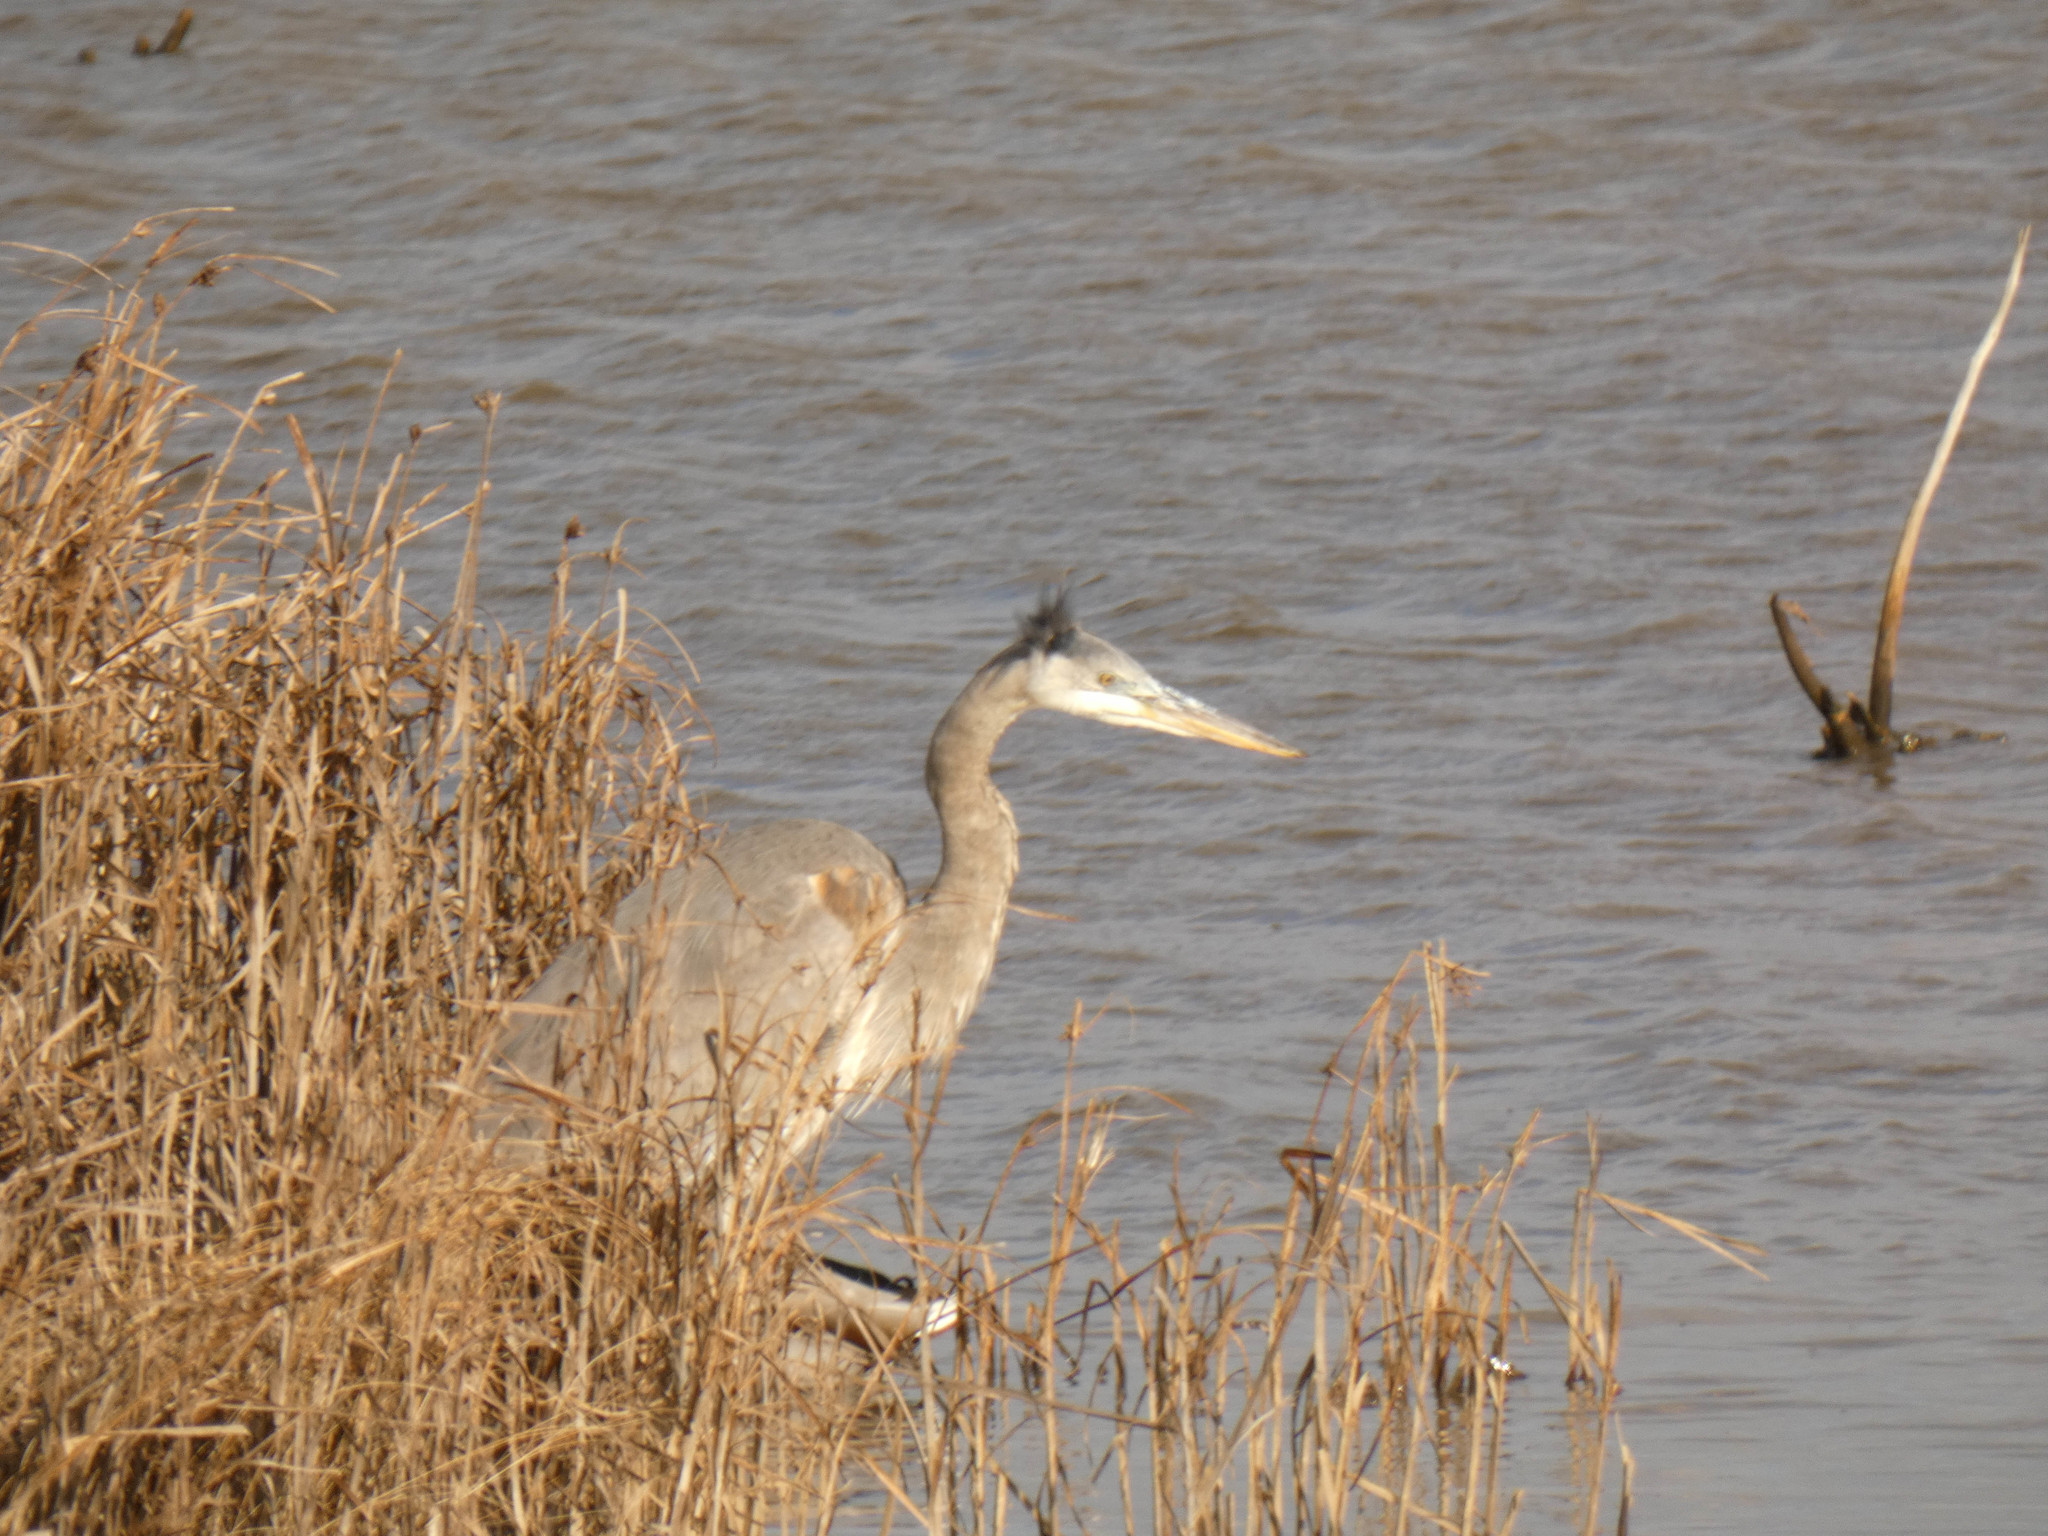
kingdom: Animalia
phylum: Chordata
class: Aves
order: Pelecaniformes
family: Ardeidae
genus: Ardea
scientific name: Ardea herodias
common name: Great blue heron
